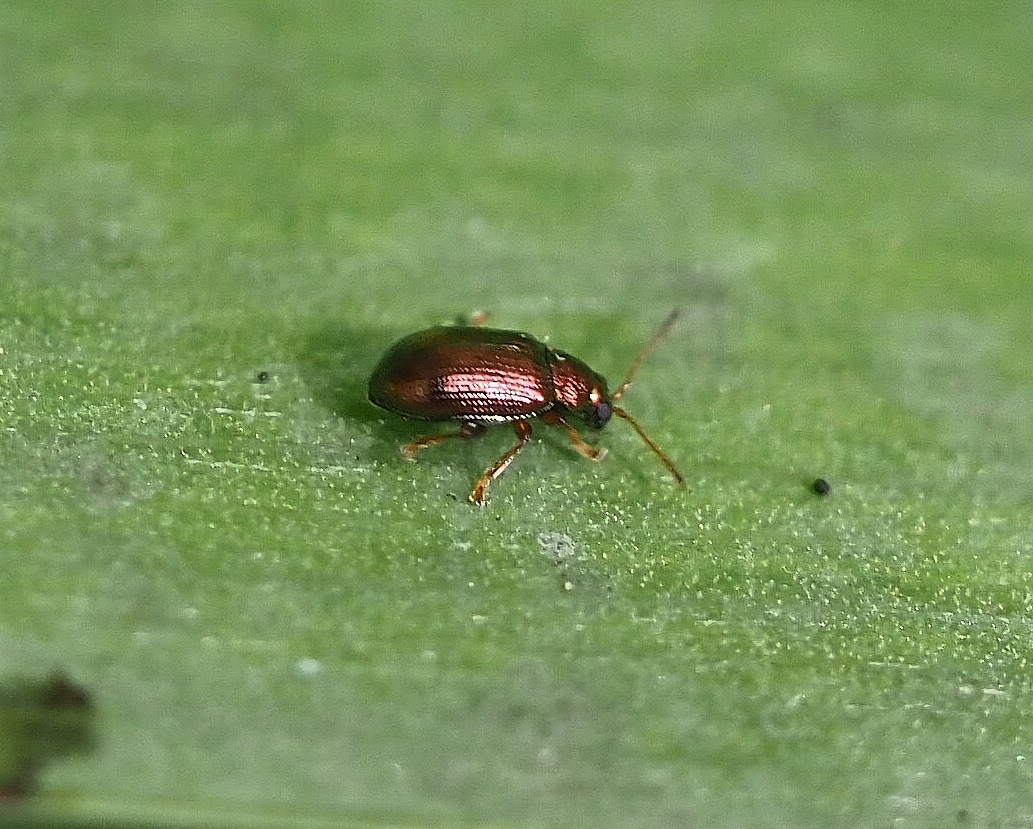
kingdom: Animalia
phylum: Arthropoda
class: Insecta
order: Coleoptera
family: Chrysomelidae
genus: Crepidodera
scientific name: Crepidodera fulvicornis
